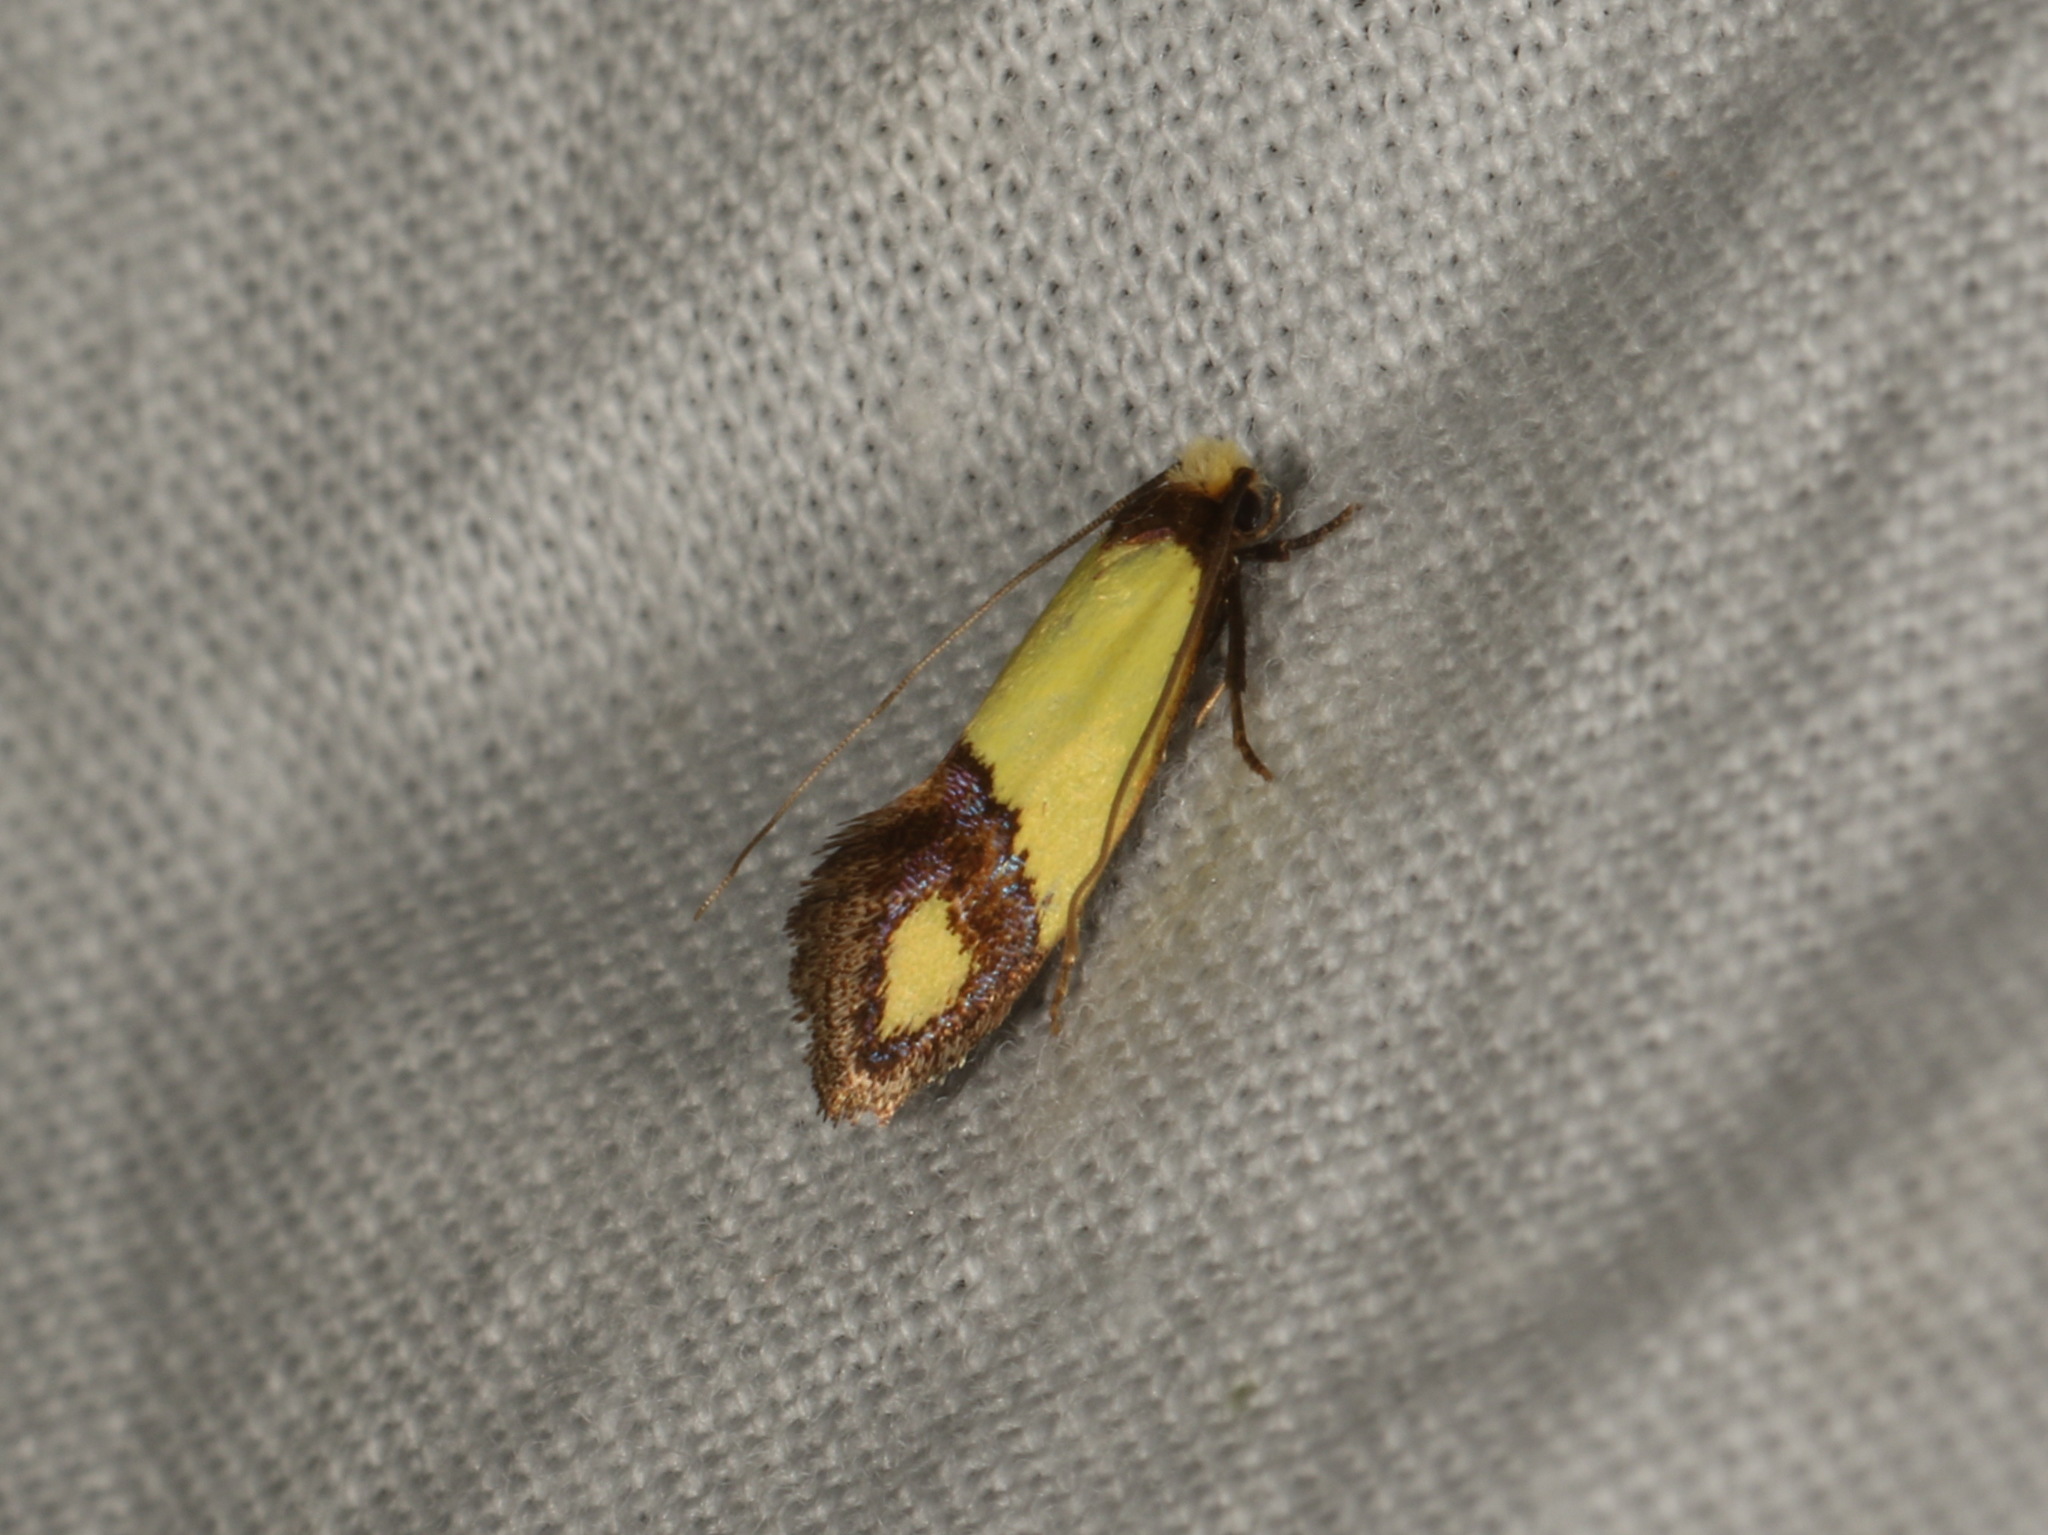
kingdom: Animalia
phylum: Arthropoda
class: Insecta
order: Lepidoptera
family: Tineidae
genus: Edosa
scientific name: Edosa fraudulens
